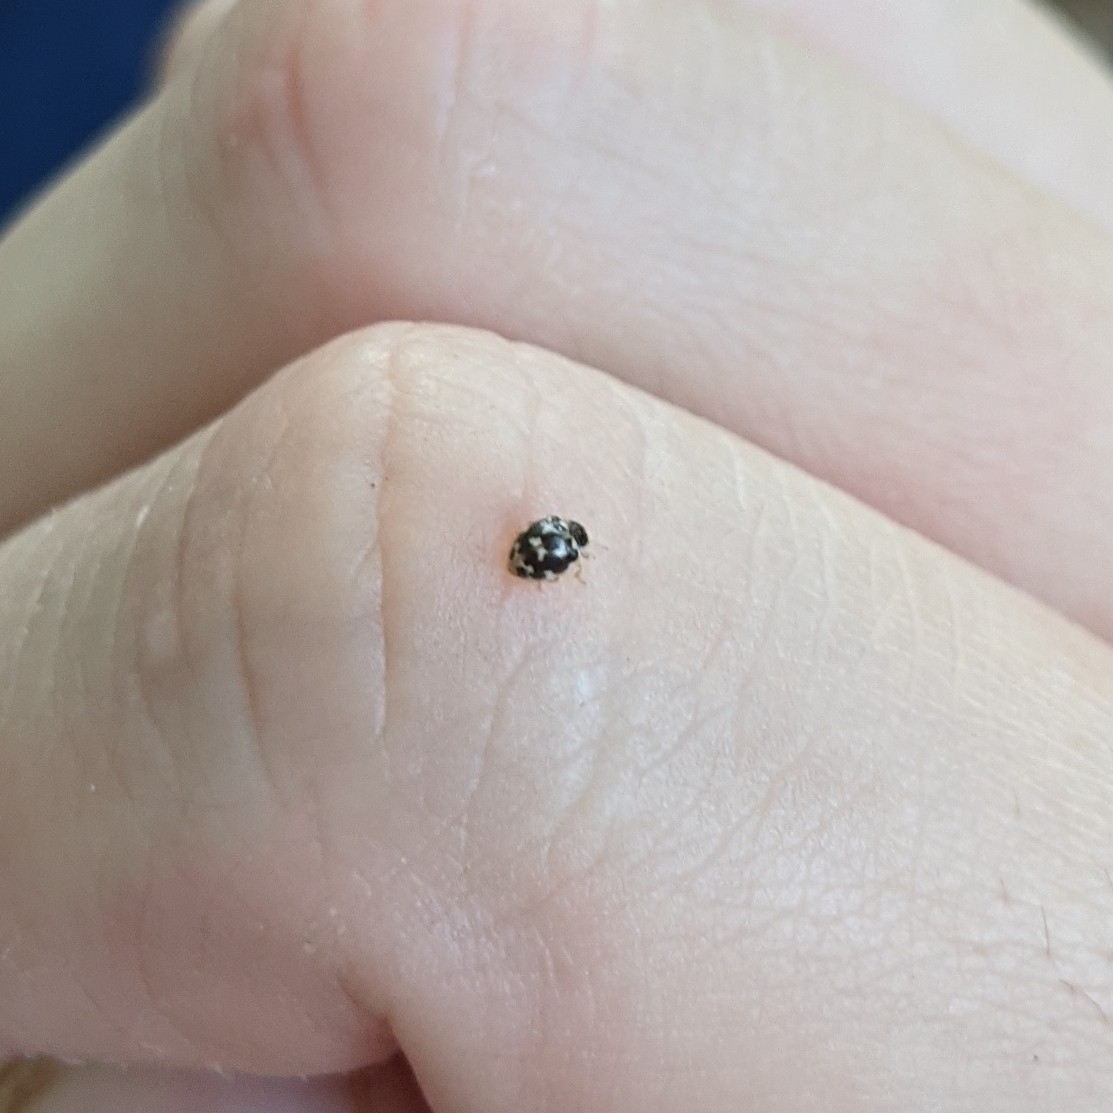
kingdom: Animalia
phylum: Arthropoda
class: Insecta
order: Coleoptera
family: Coccinellidae
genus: Psyllobora
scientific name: Psyllobora vigintimaculata
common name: Ladybird beetle
